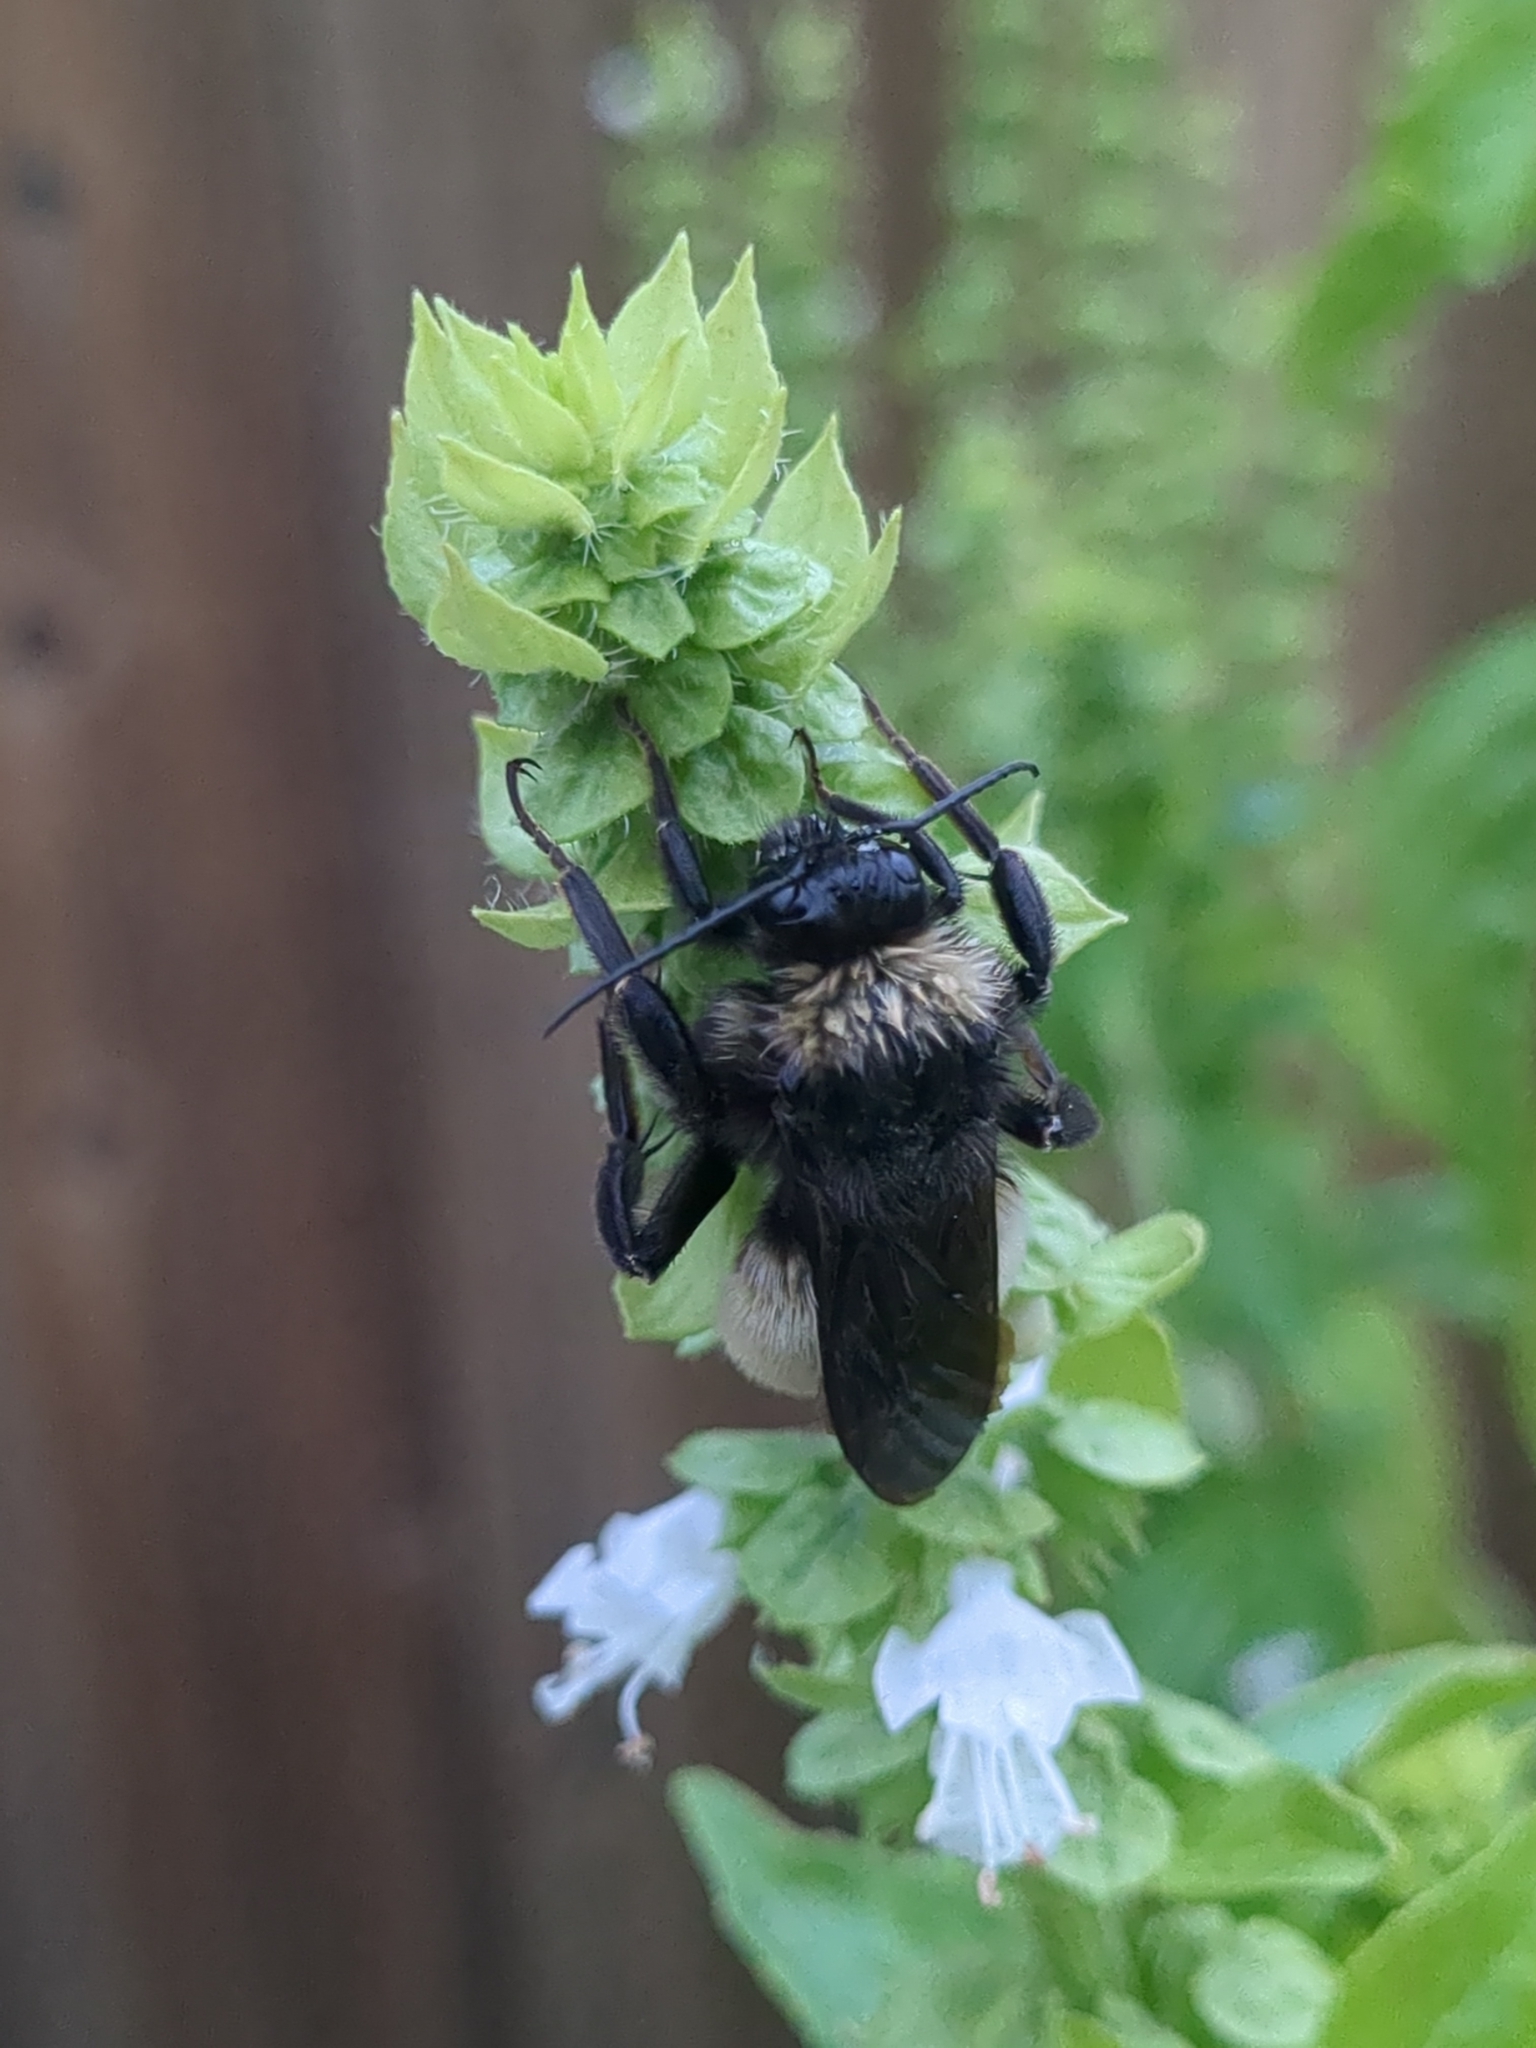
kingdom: Animalia
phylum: Arthropoda
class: Insecta
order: Hymenoptera
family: Apidae
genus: Bombus
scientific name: Bombus pensylvanicus
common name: Bumble bee
